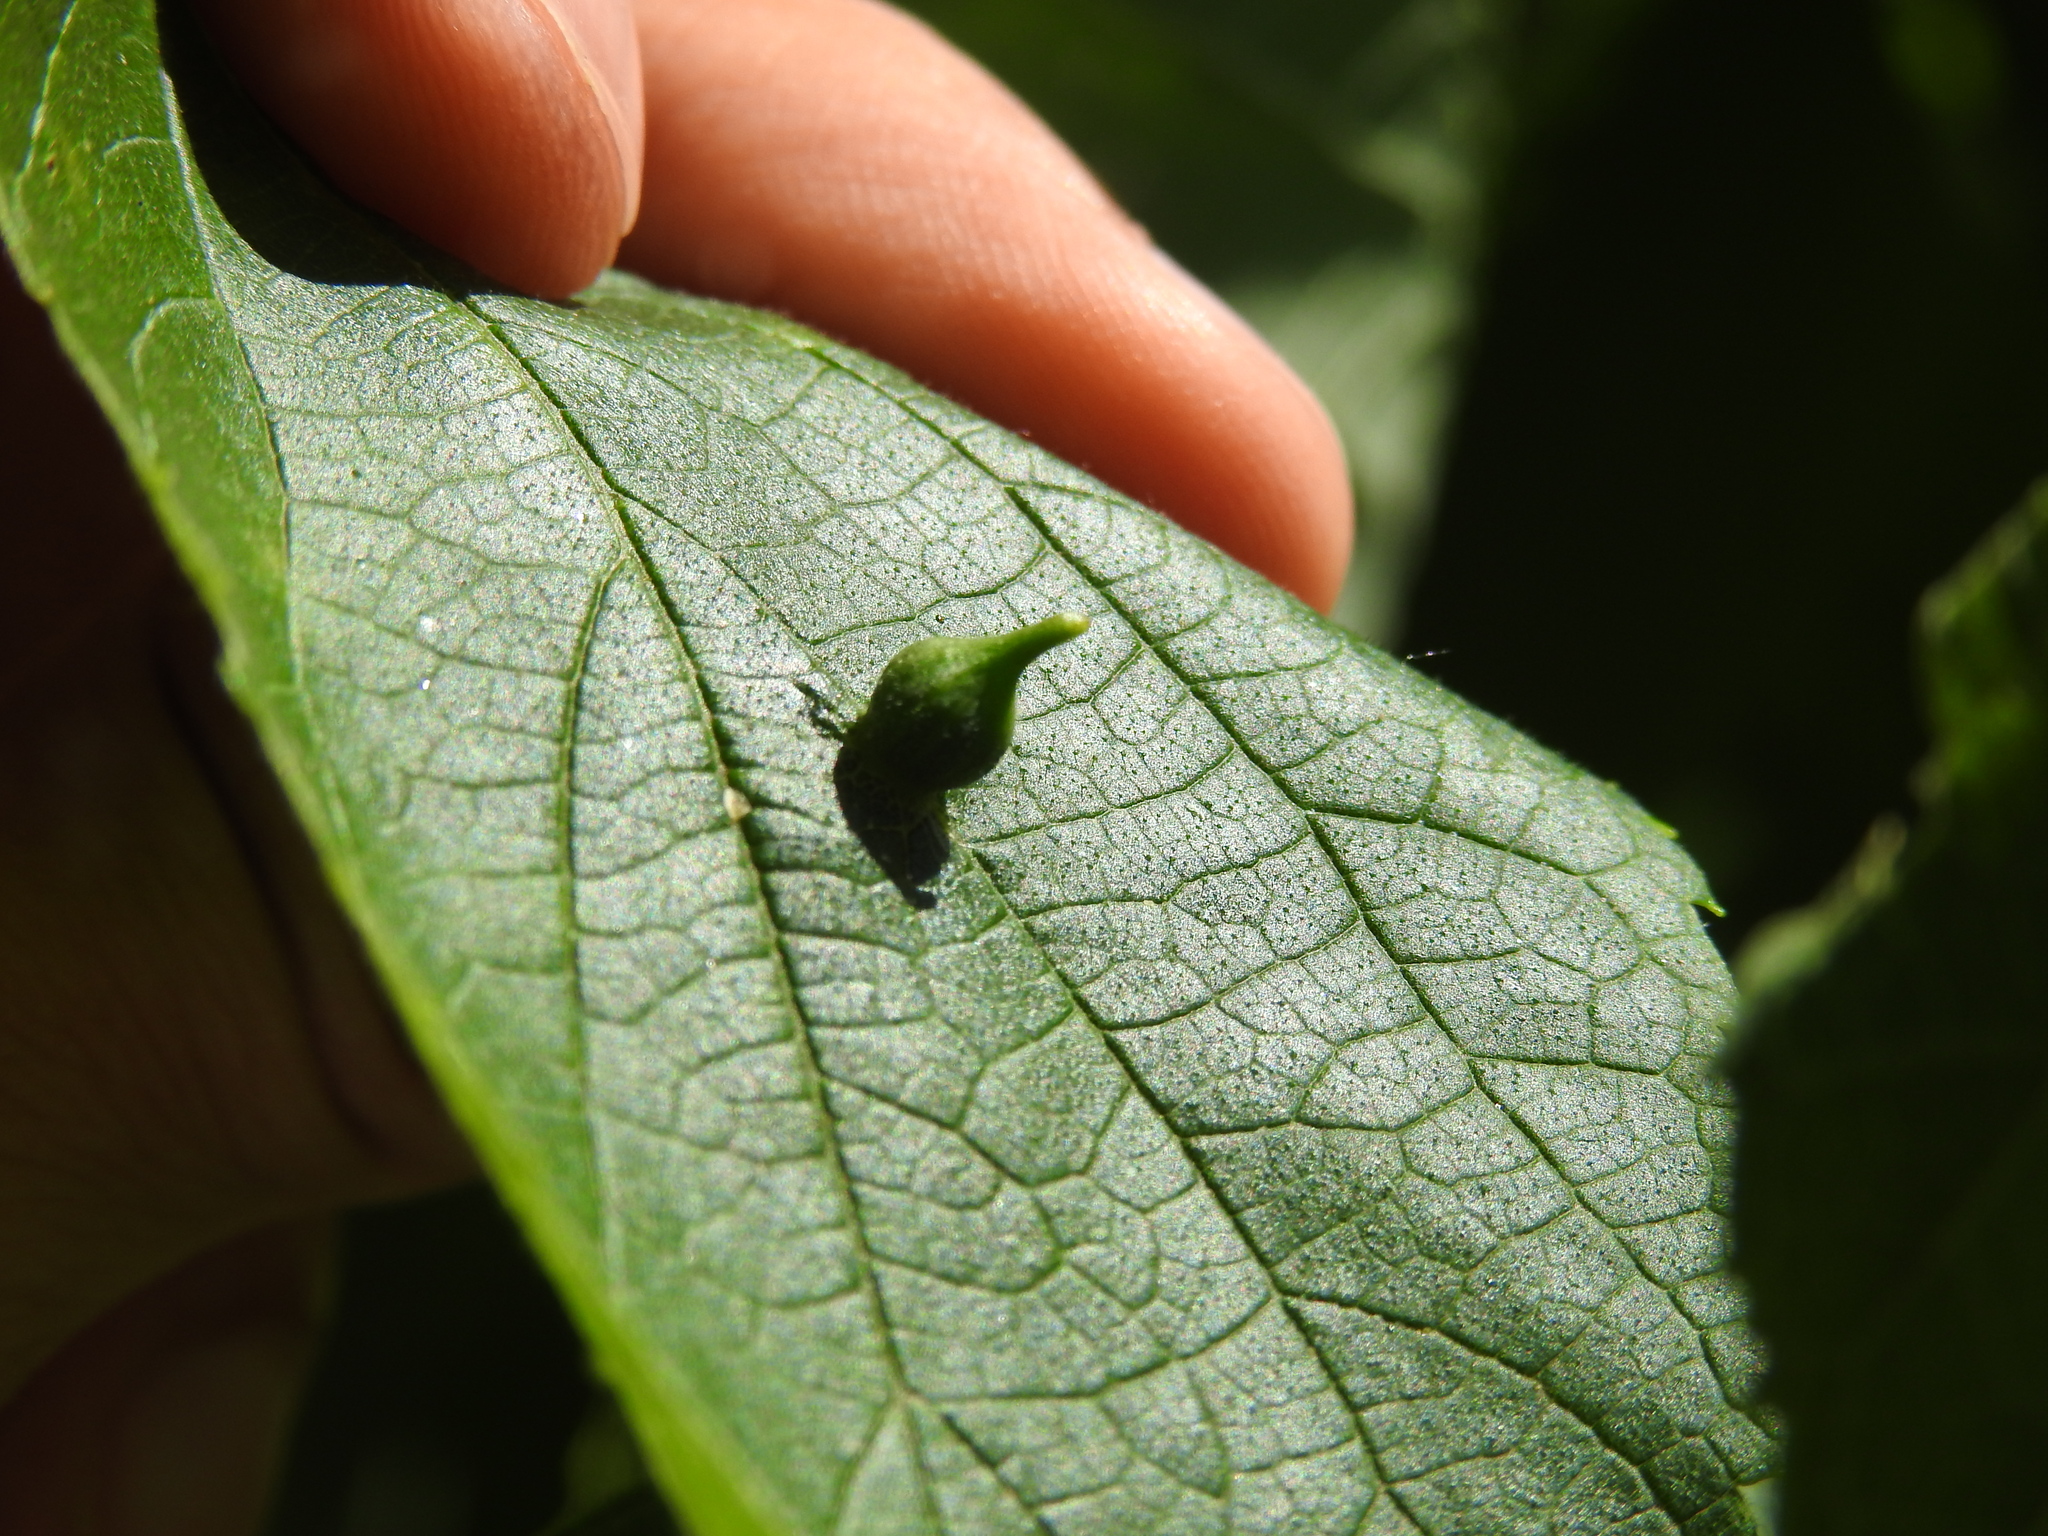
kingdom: Animalia
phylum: Arthropoda
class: Insecta
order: Diptera
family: Cecidomyiidae
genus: Celticecis
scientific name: Celticecis ovata
